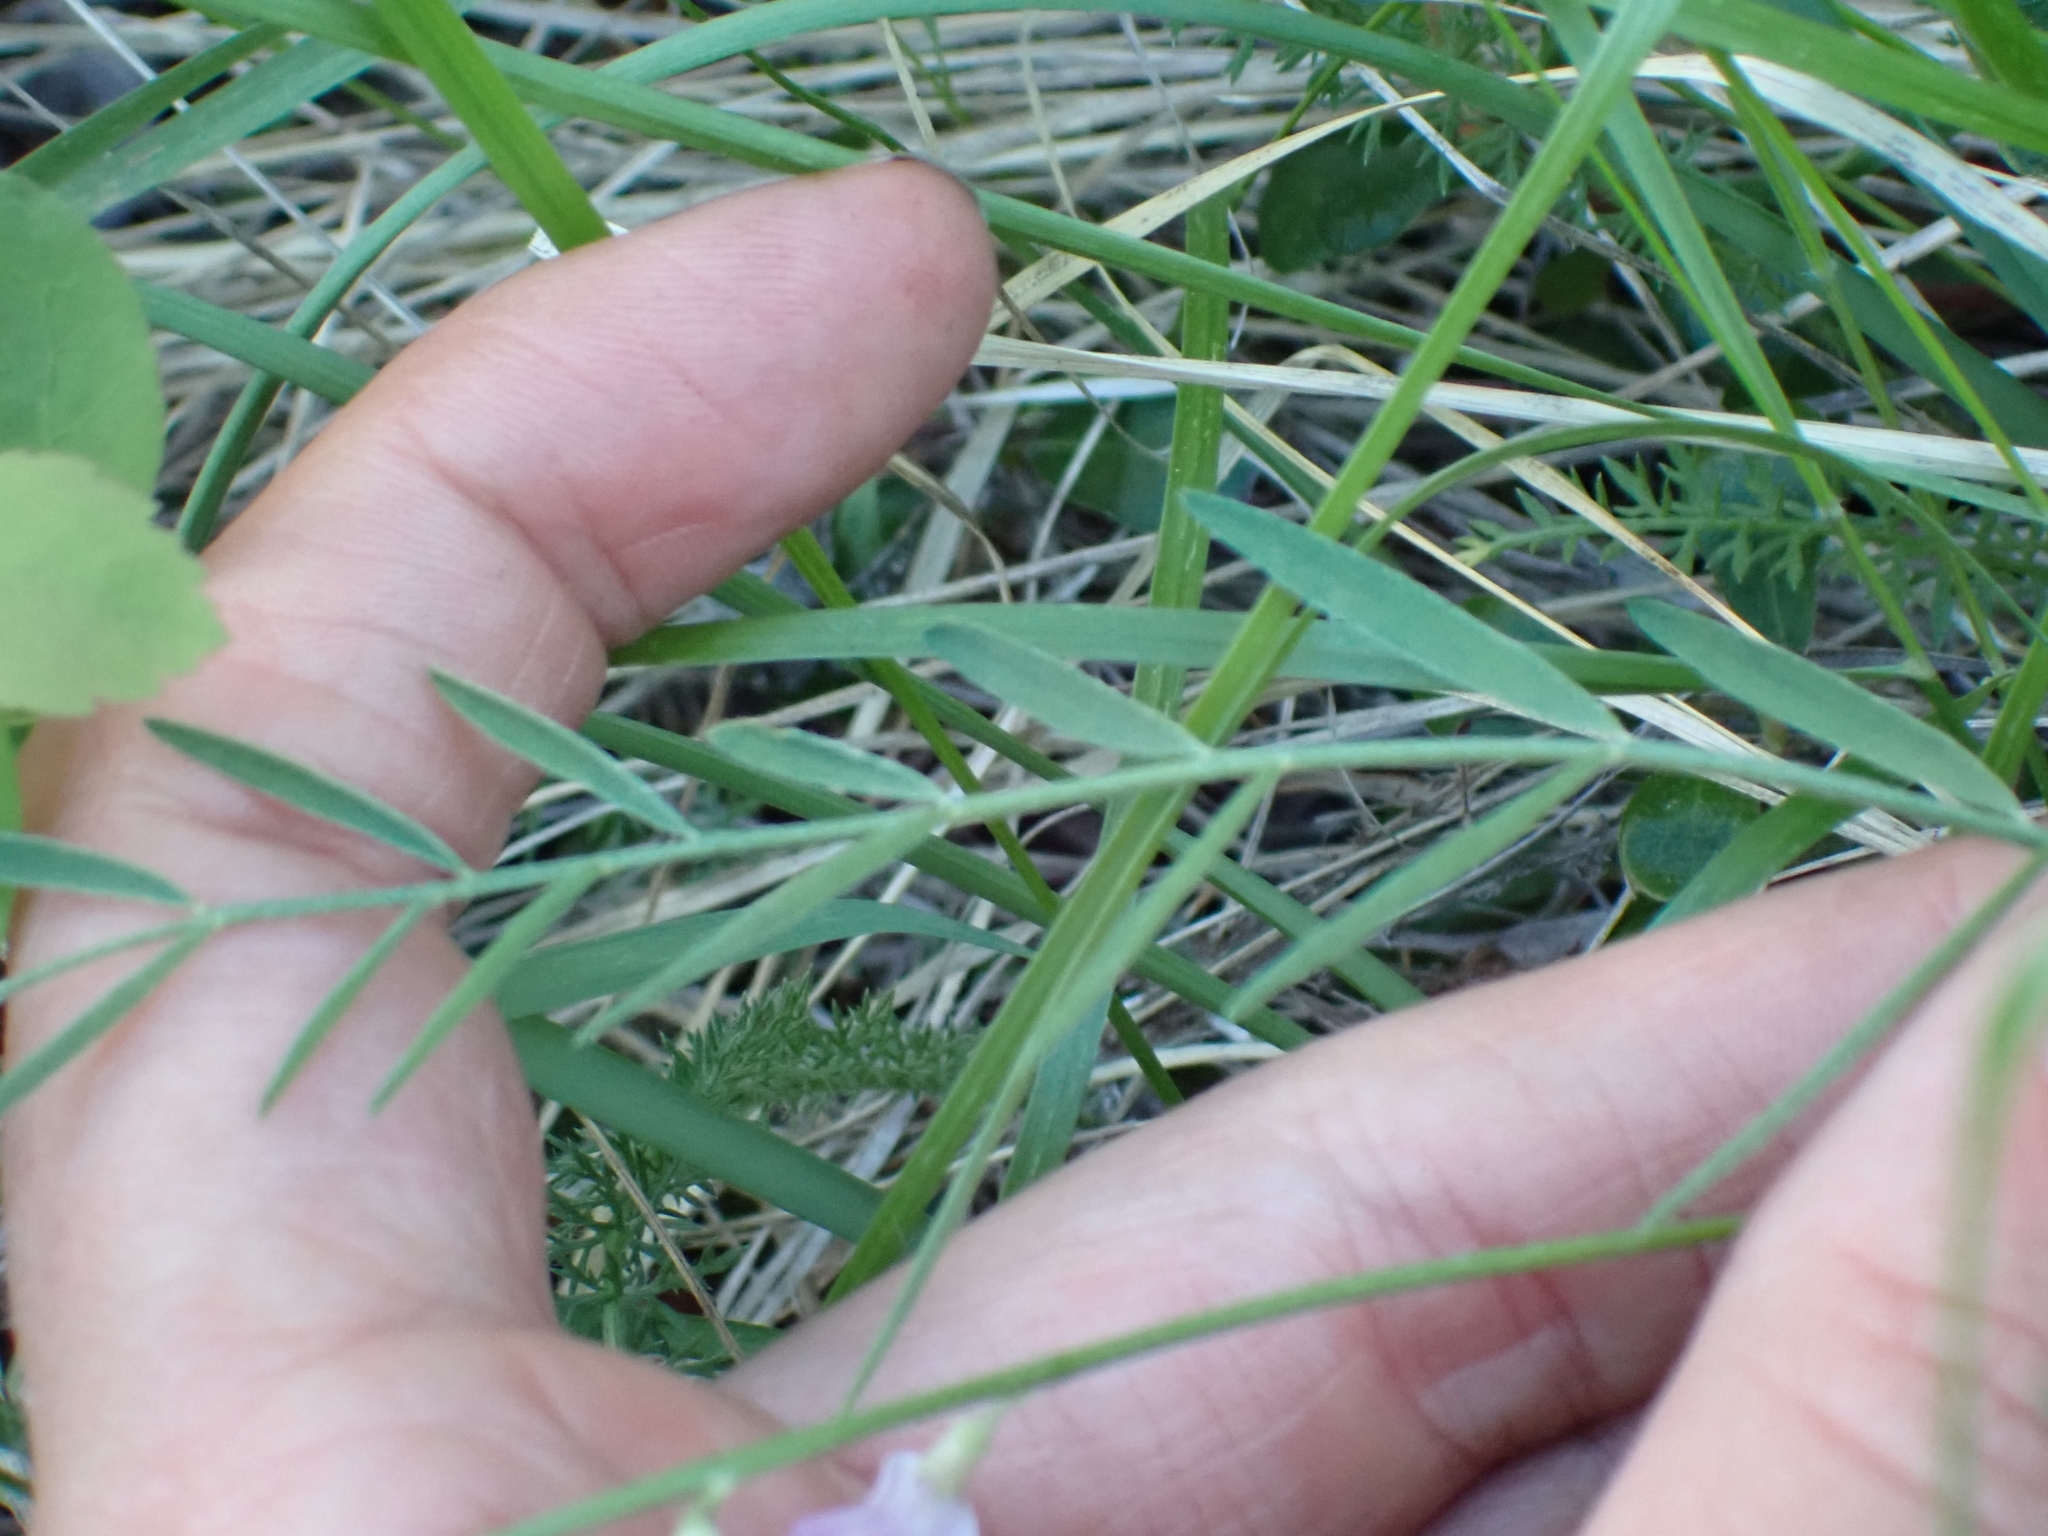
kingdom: Plantae
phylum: Tracheophyta
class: Magnoliopsida
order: Fabales
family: Fabaceae
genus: Astragalus
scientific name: Astragalus miser
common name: Timber milkvetch
